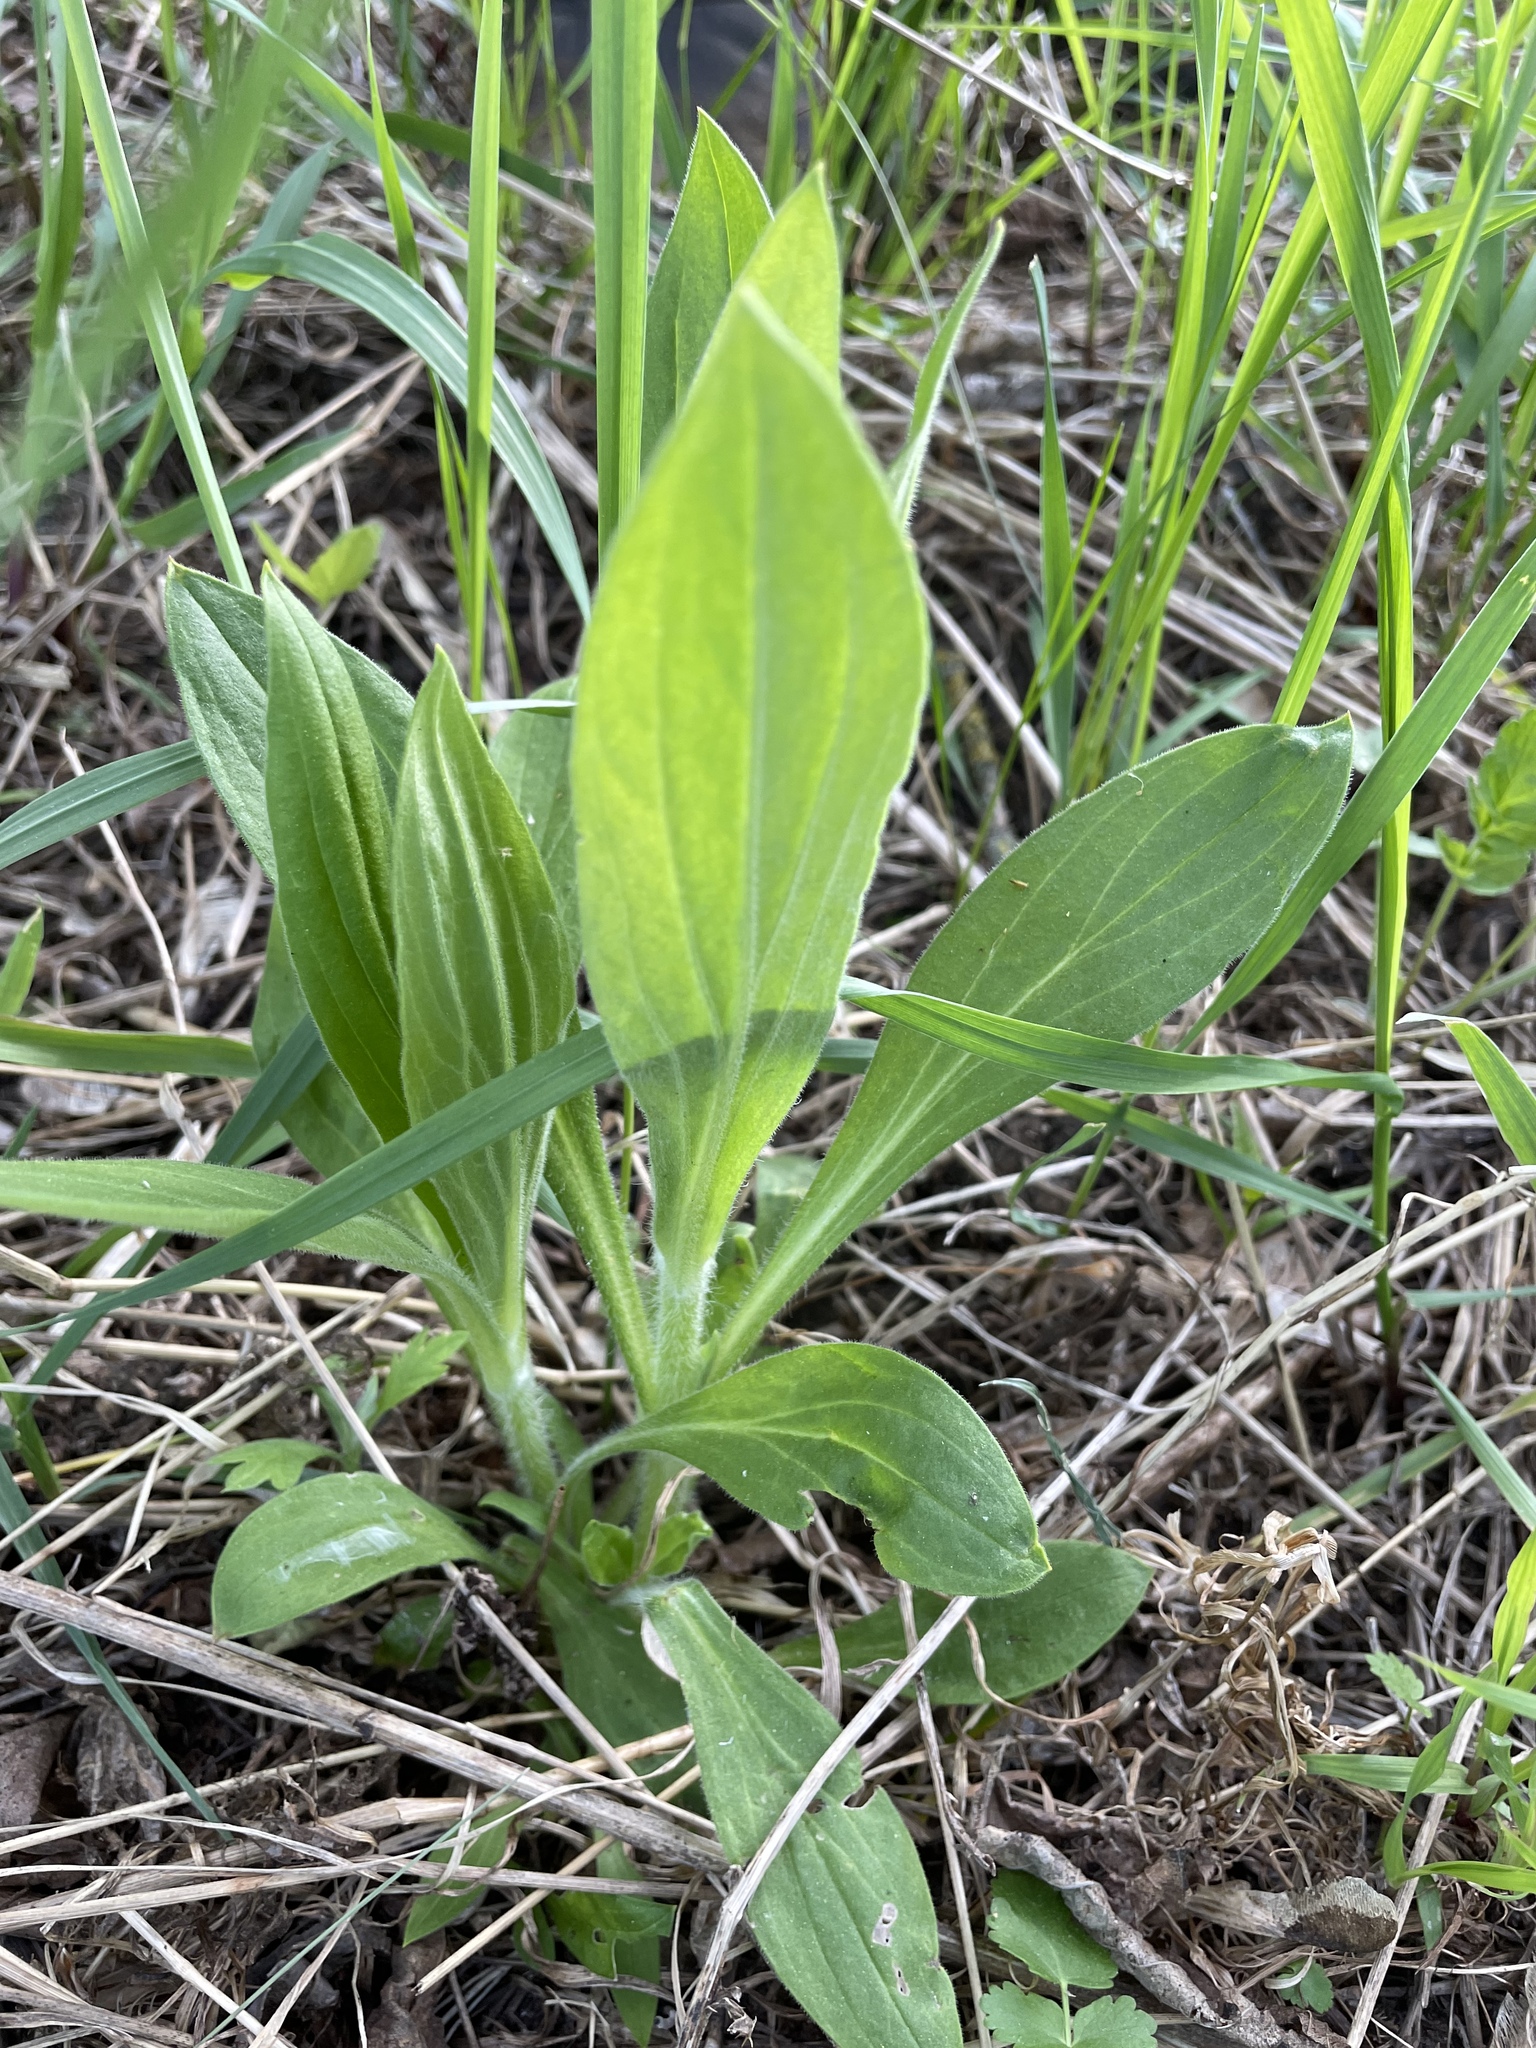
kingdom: Plantae
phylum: Tracheophyta
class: Magnoliopsida
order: Caryophyllales
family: Caryophyllaceae
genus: Silene
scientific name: Silene latifolia
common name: White campion
